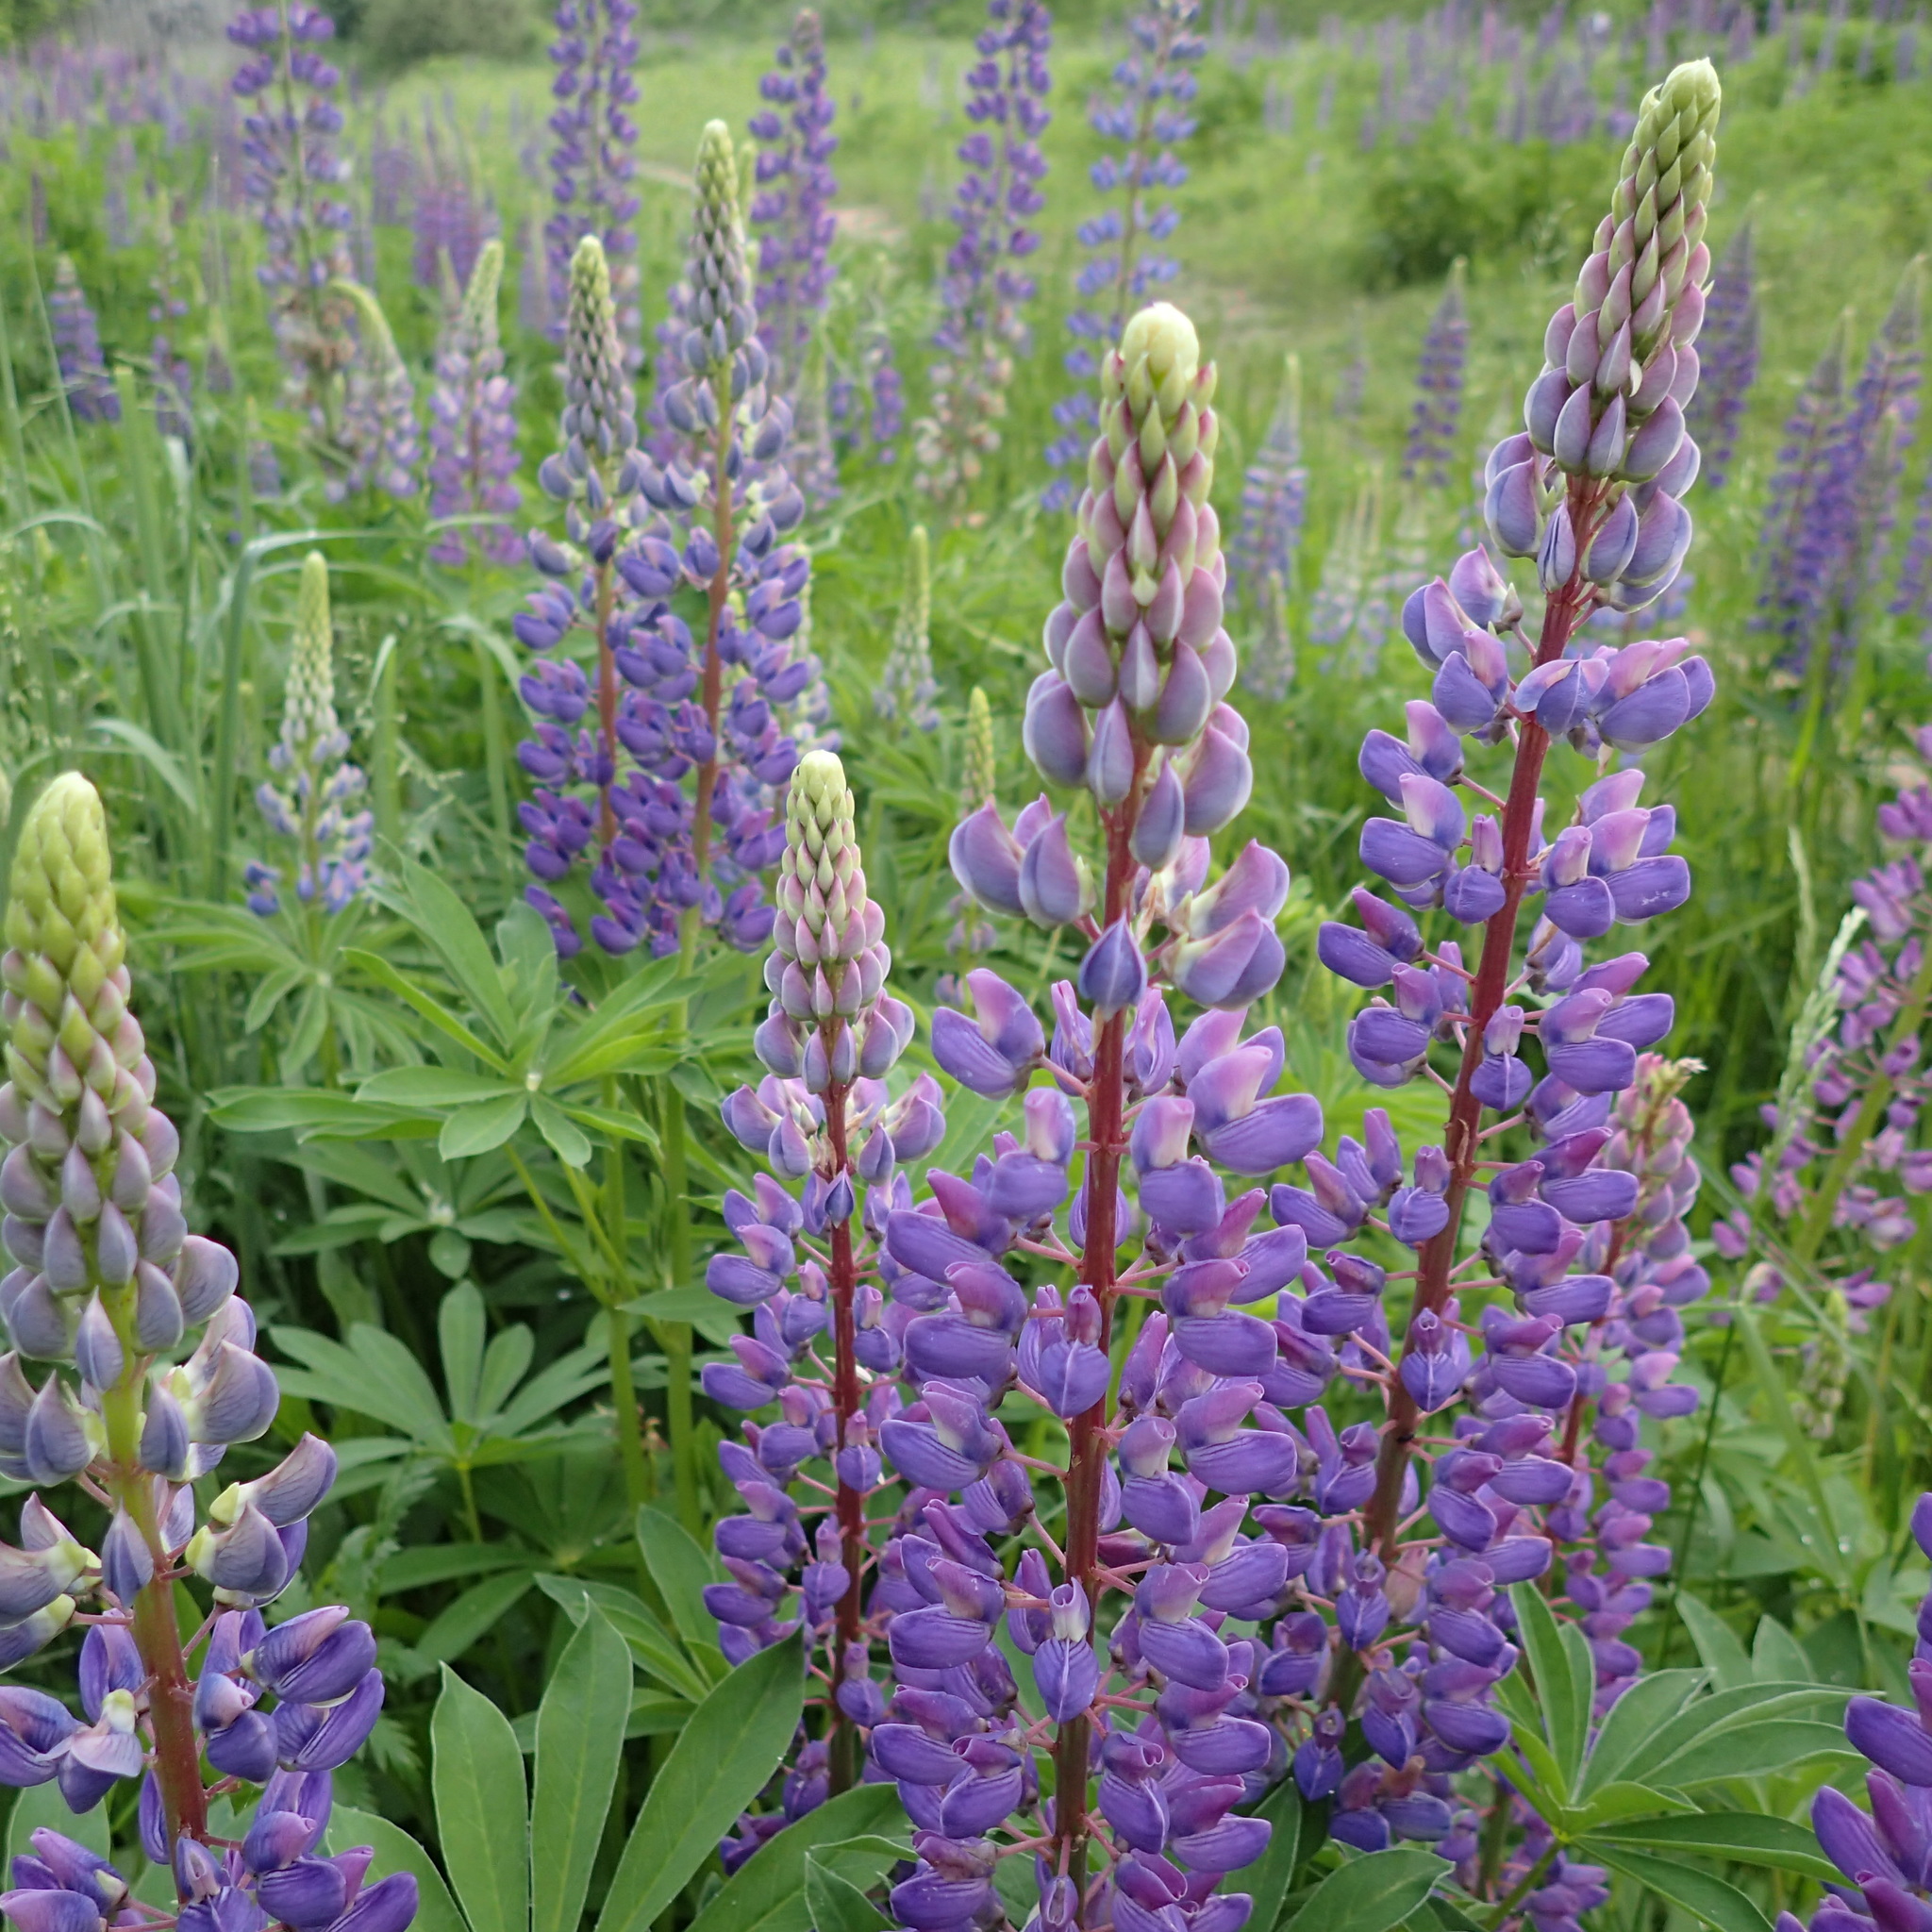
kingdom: Plantae
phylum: Tracheophyta
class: Magnoliopsida
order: Fabales
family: Fabaceae
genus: Lupinus
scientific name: Lupinus polyphyllus
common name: Garden lupin
